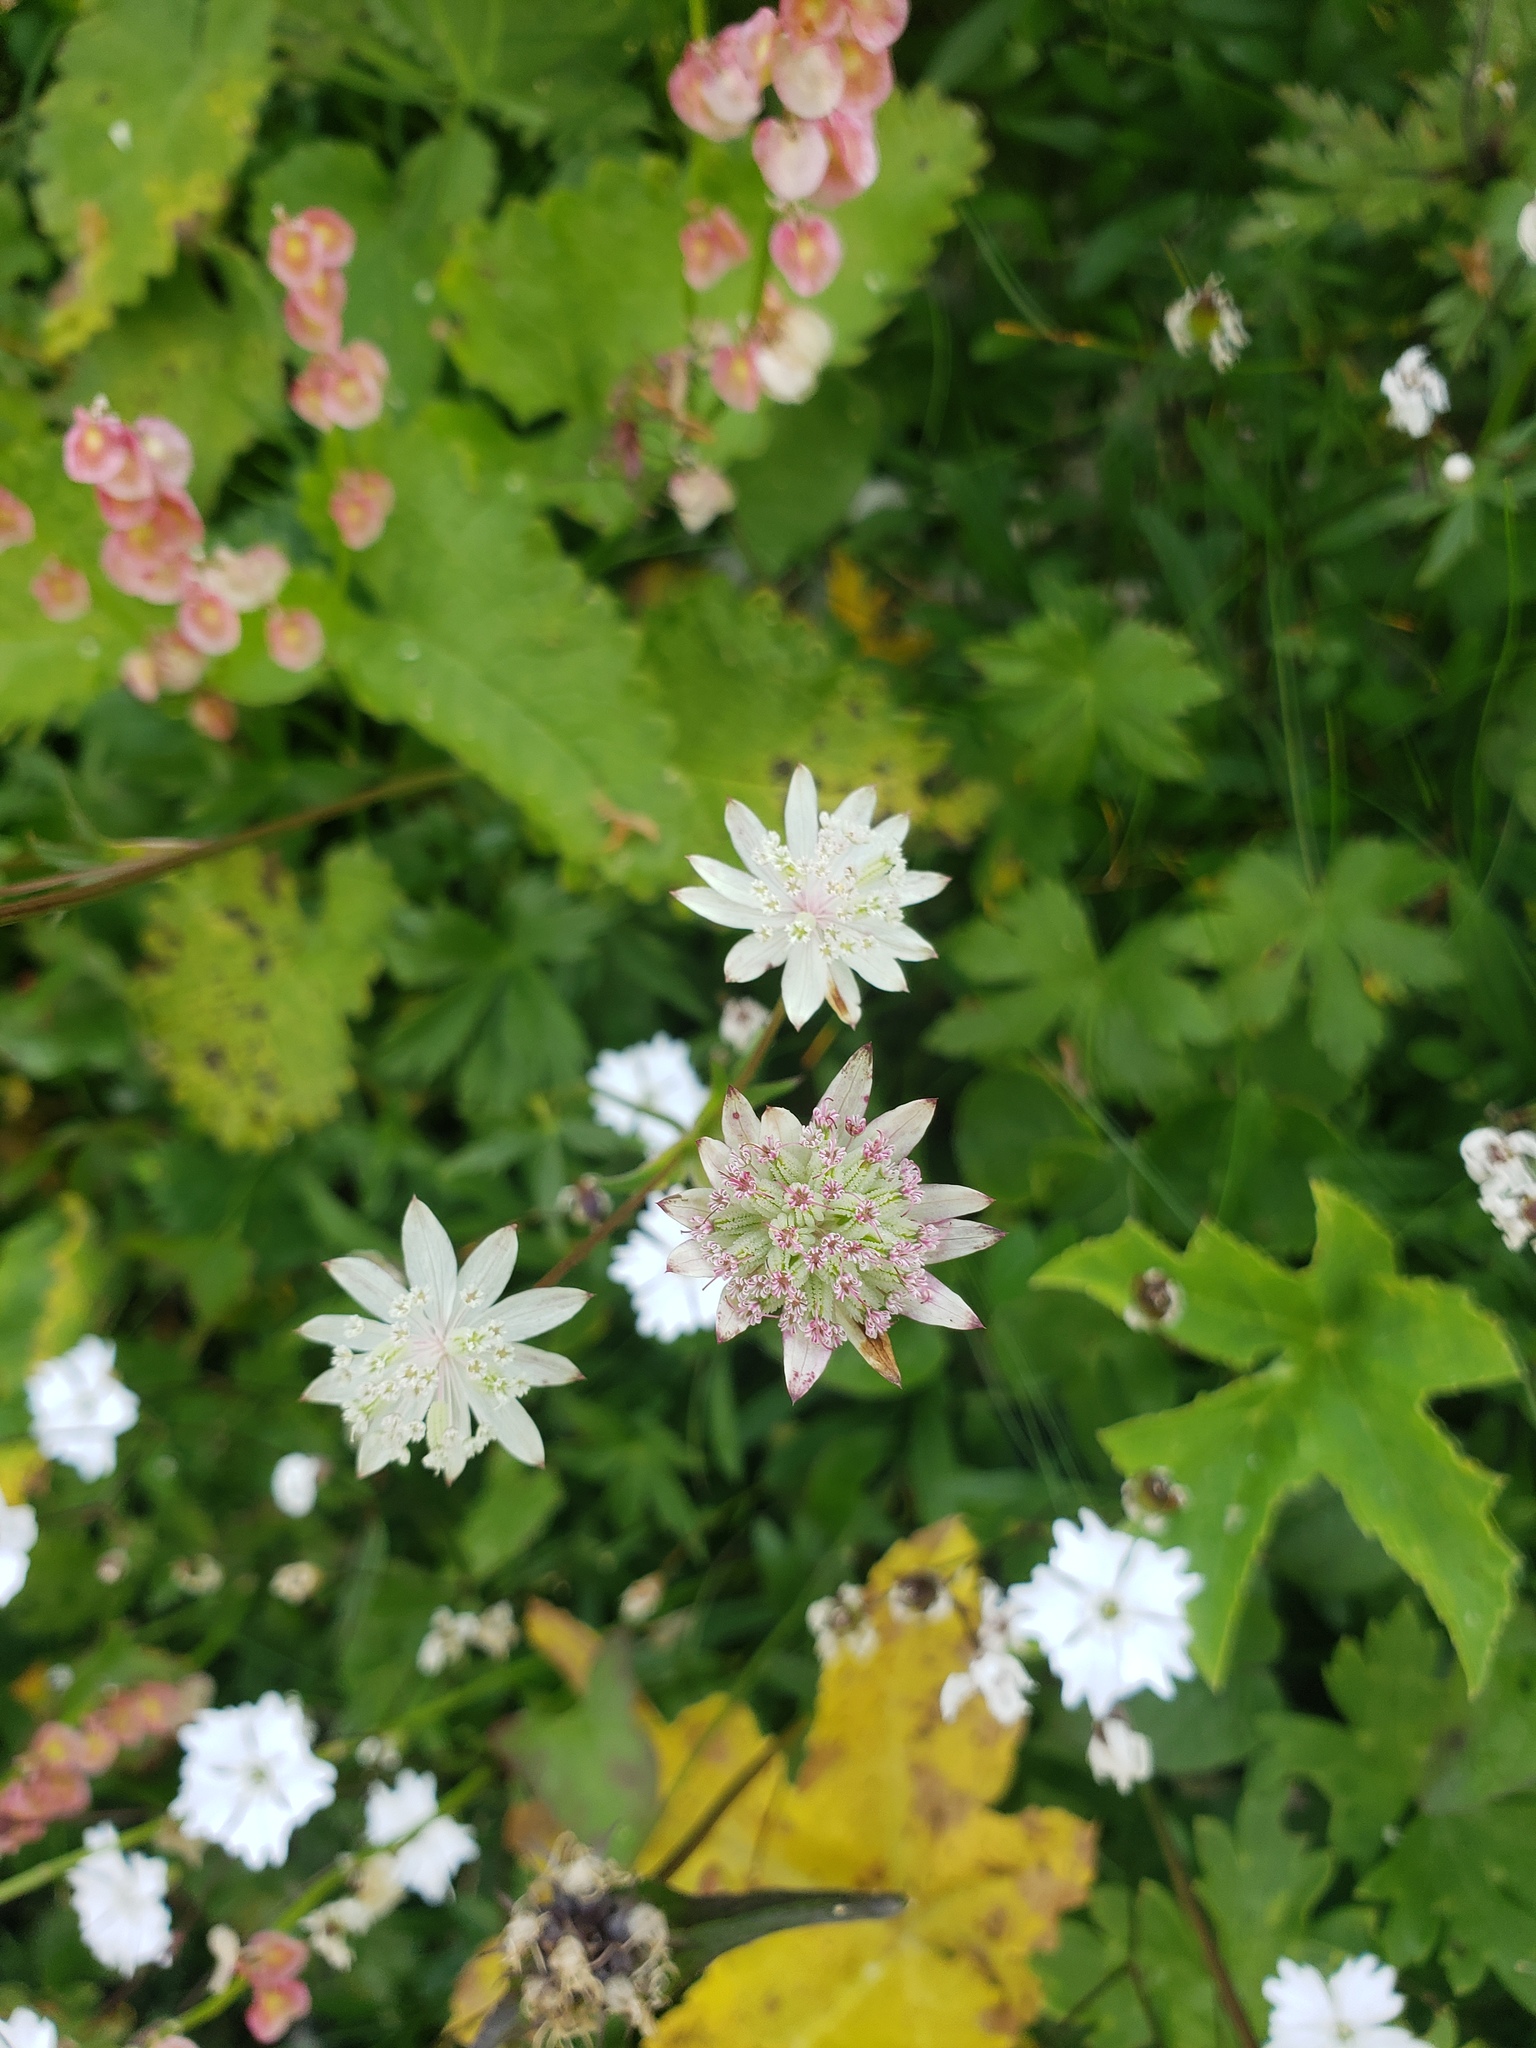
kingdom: Plantae
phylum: Tracheophyta
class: Magnoliopsida
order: Apiales
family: Apiaceae
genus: Astrantia
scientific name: Astrantia bavarica
